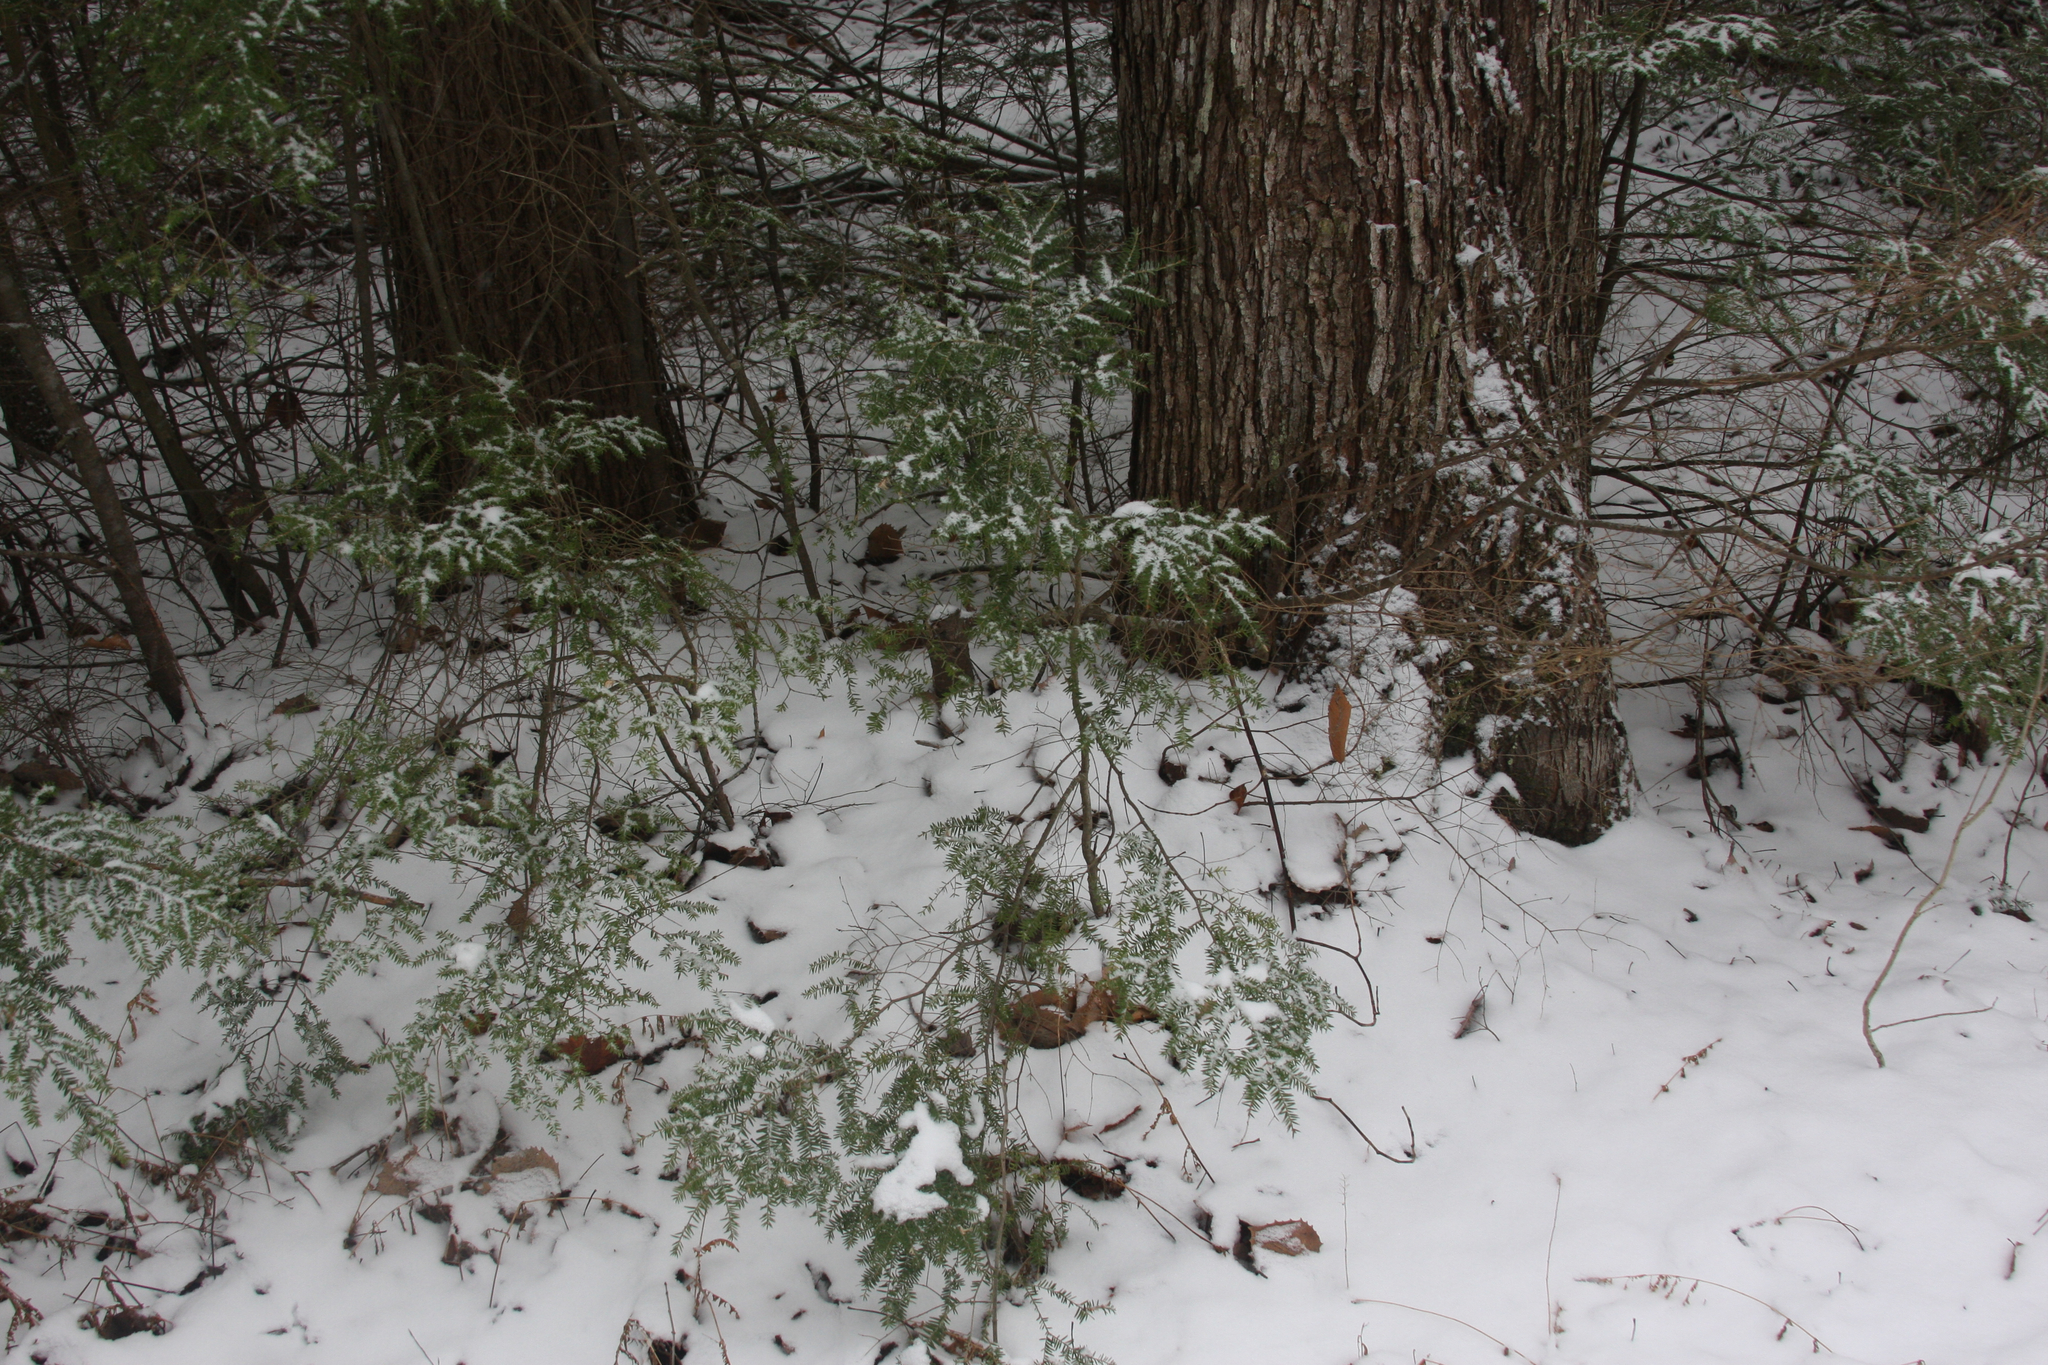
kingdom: Plantae
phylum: Tracheophyta
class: Pinopsida
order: Pinales
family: Pinaceae
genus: Tsuga
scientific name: Tsuga canadensis
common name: Eastern hemlock
